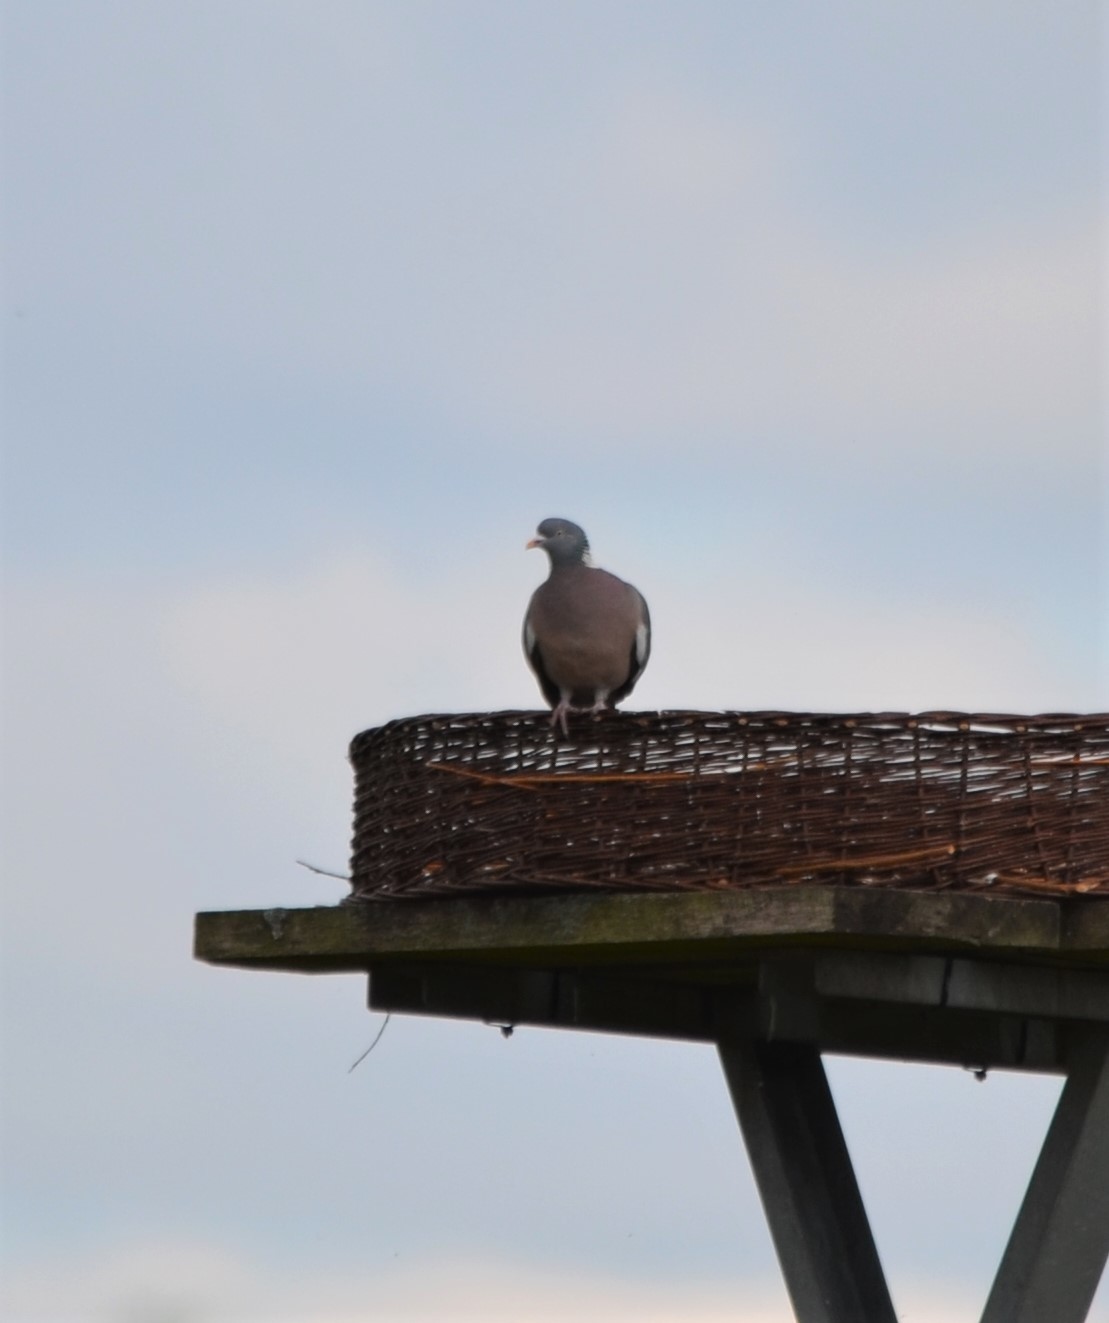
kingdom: Animalia
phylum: Chordata
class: Aves
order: Columbiformes
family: Columbidae
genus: Columba
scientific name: Columba palumbus
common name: Common wood pigeon
